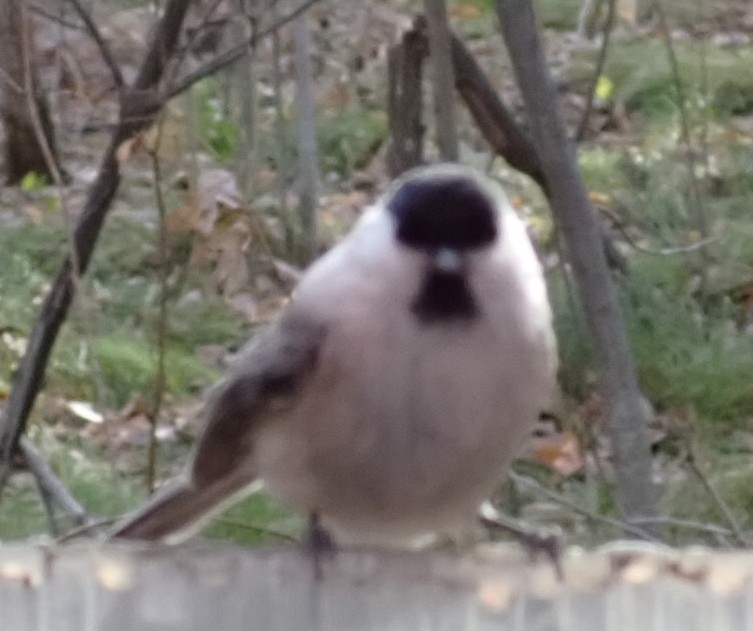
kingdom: Animalia
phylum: Chordata
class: Aves
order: Passeriformes
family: Paridae
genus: Poecile
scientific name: Poecile montanus
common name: Willow tit
